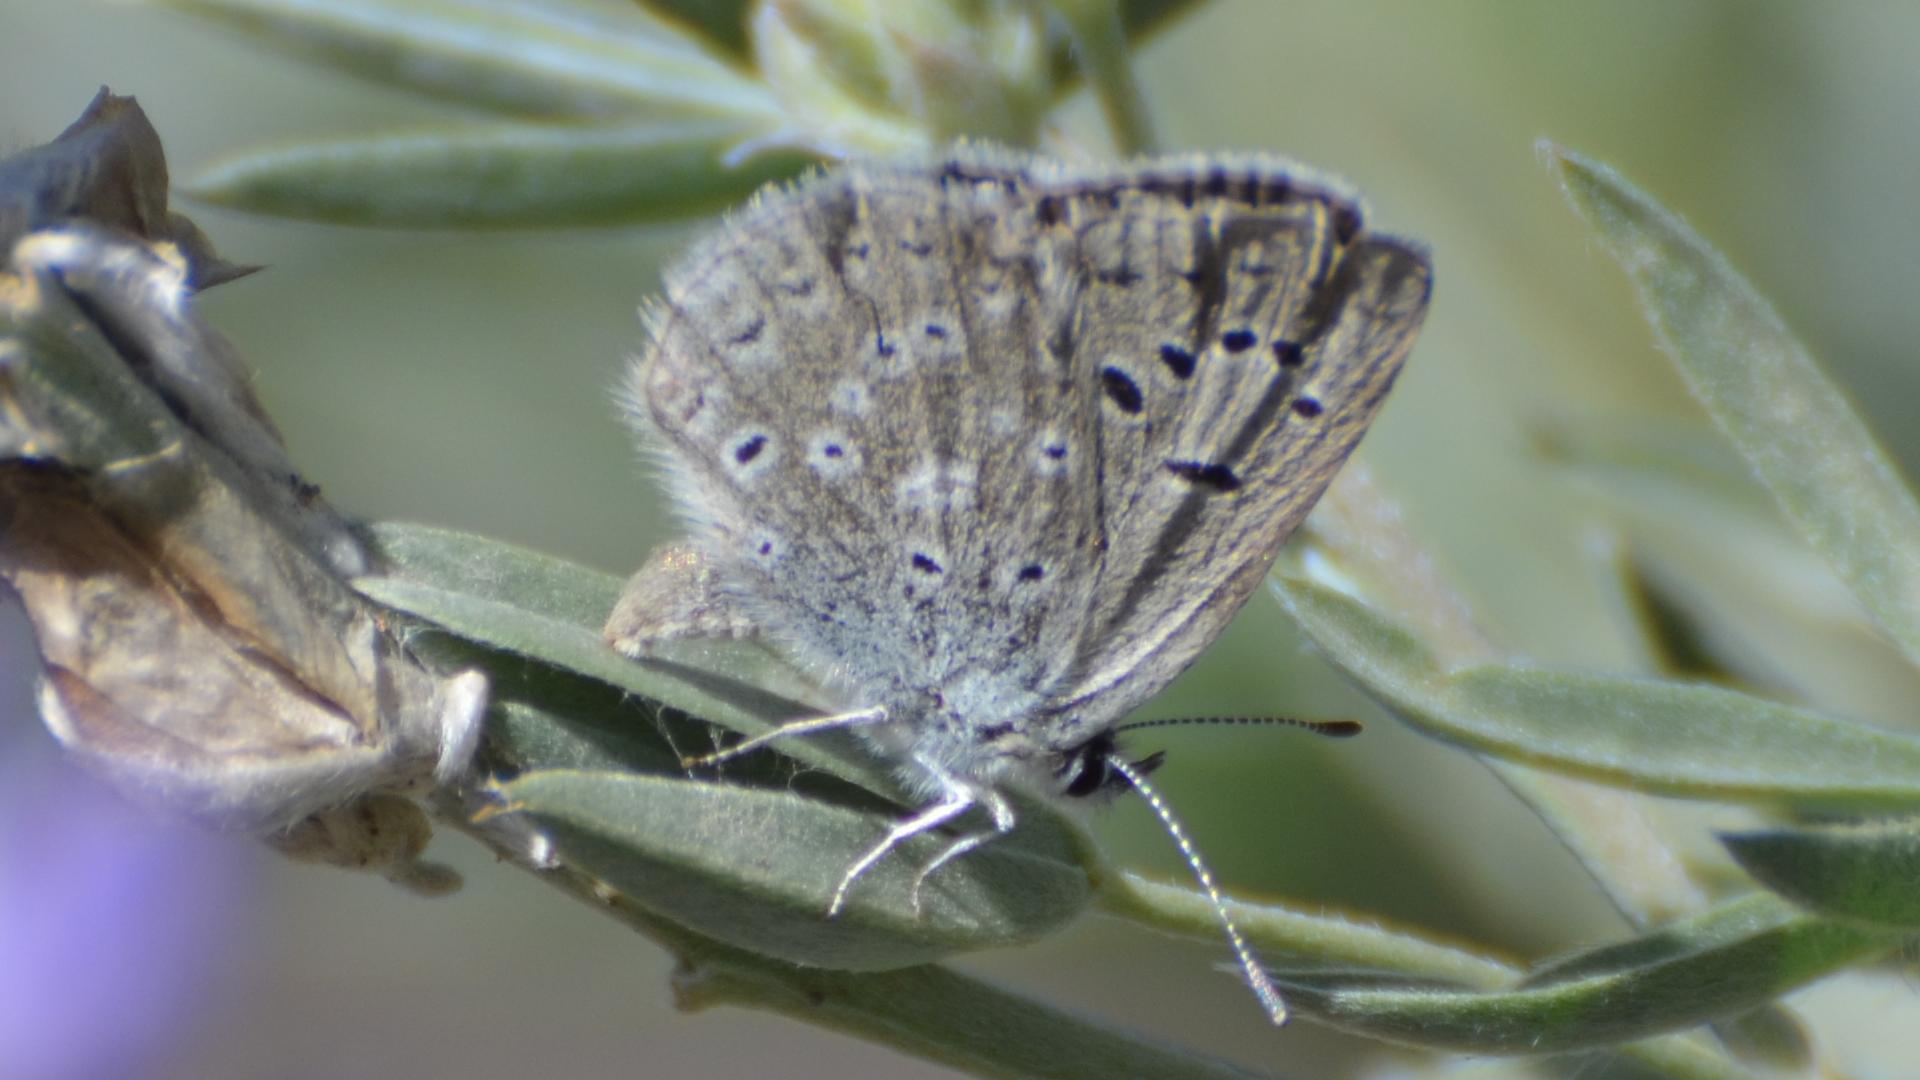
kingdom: Animalia
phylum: Arthropoda
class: Insecta
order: Lepidoptera
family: Lycaenidae
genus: Icaricia
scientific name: Icaricia icarioides
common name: Boisduval's blue
